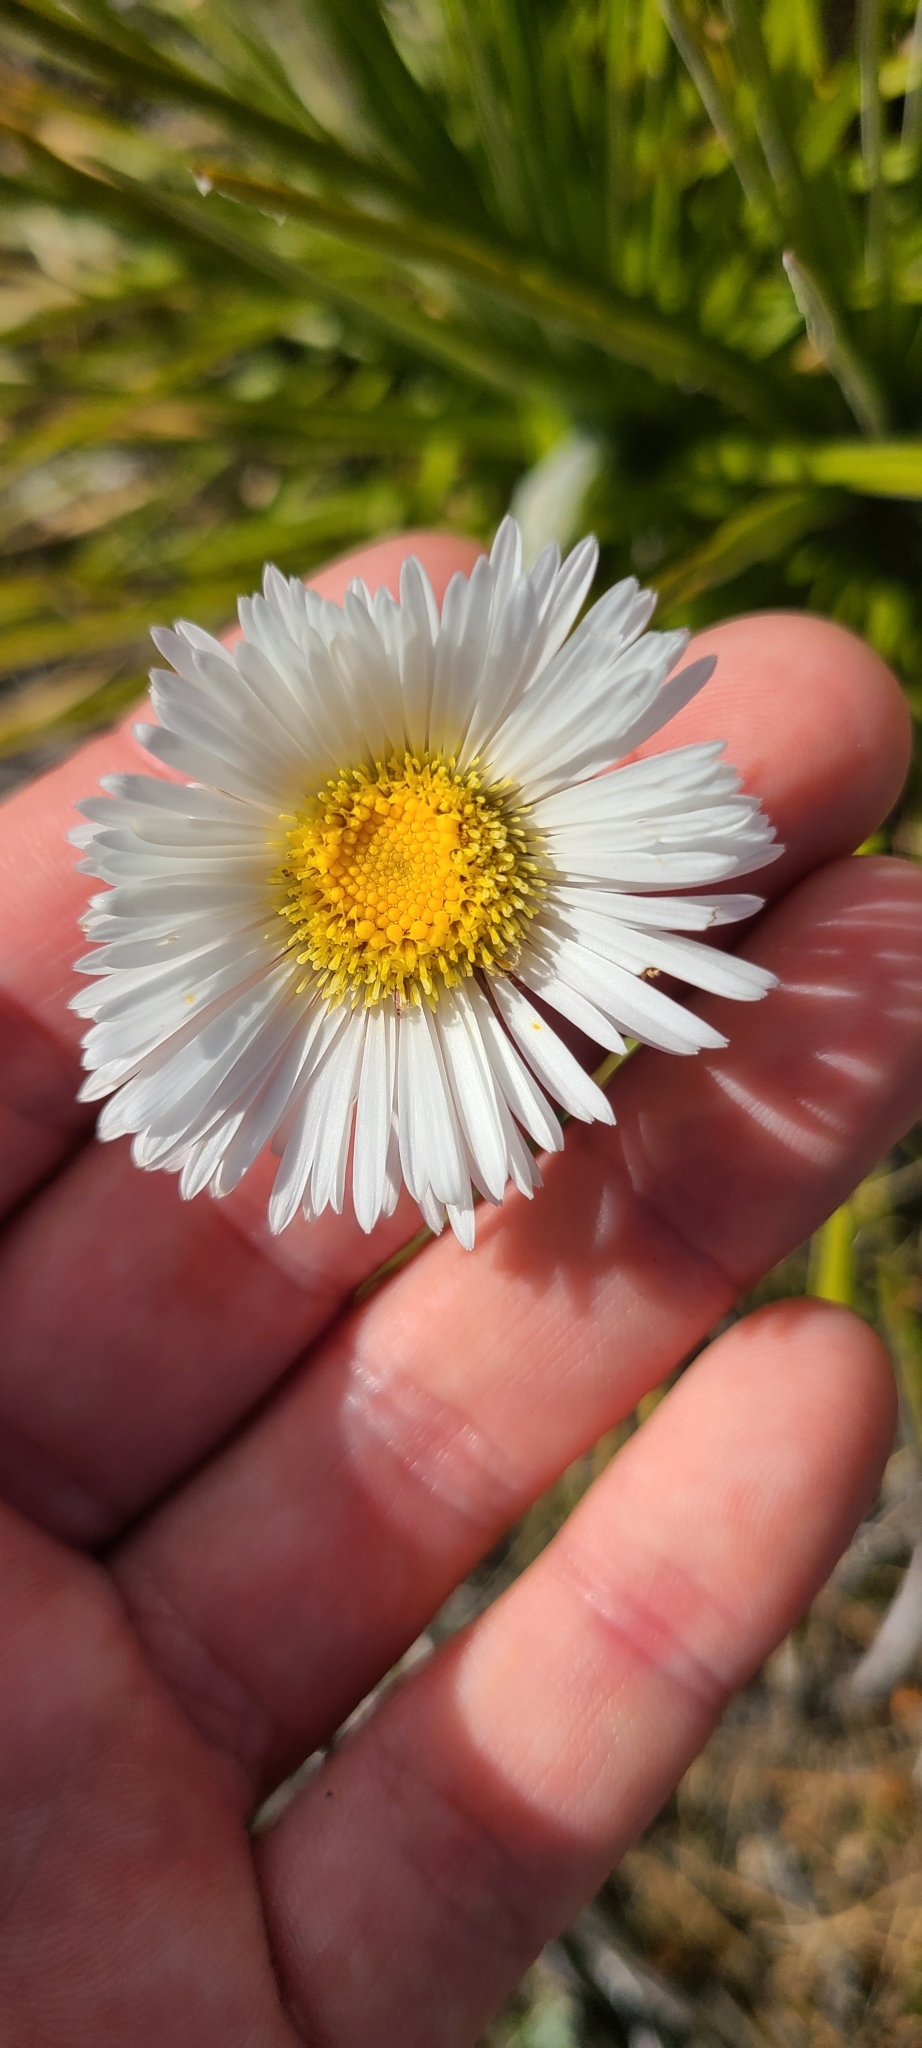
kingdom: Plantae
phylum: Tracheophyta
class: Magnoliopsida
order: Asterales
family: Asteraceae
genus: Celmisia
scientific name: Celmisia lyallii
